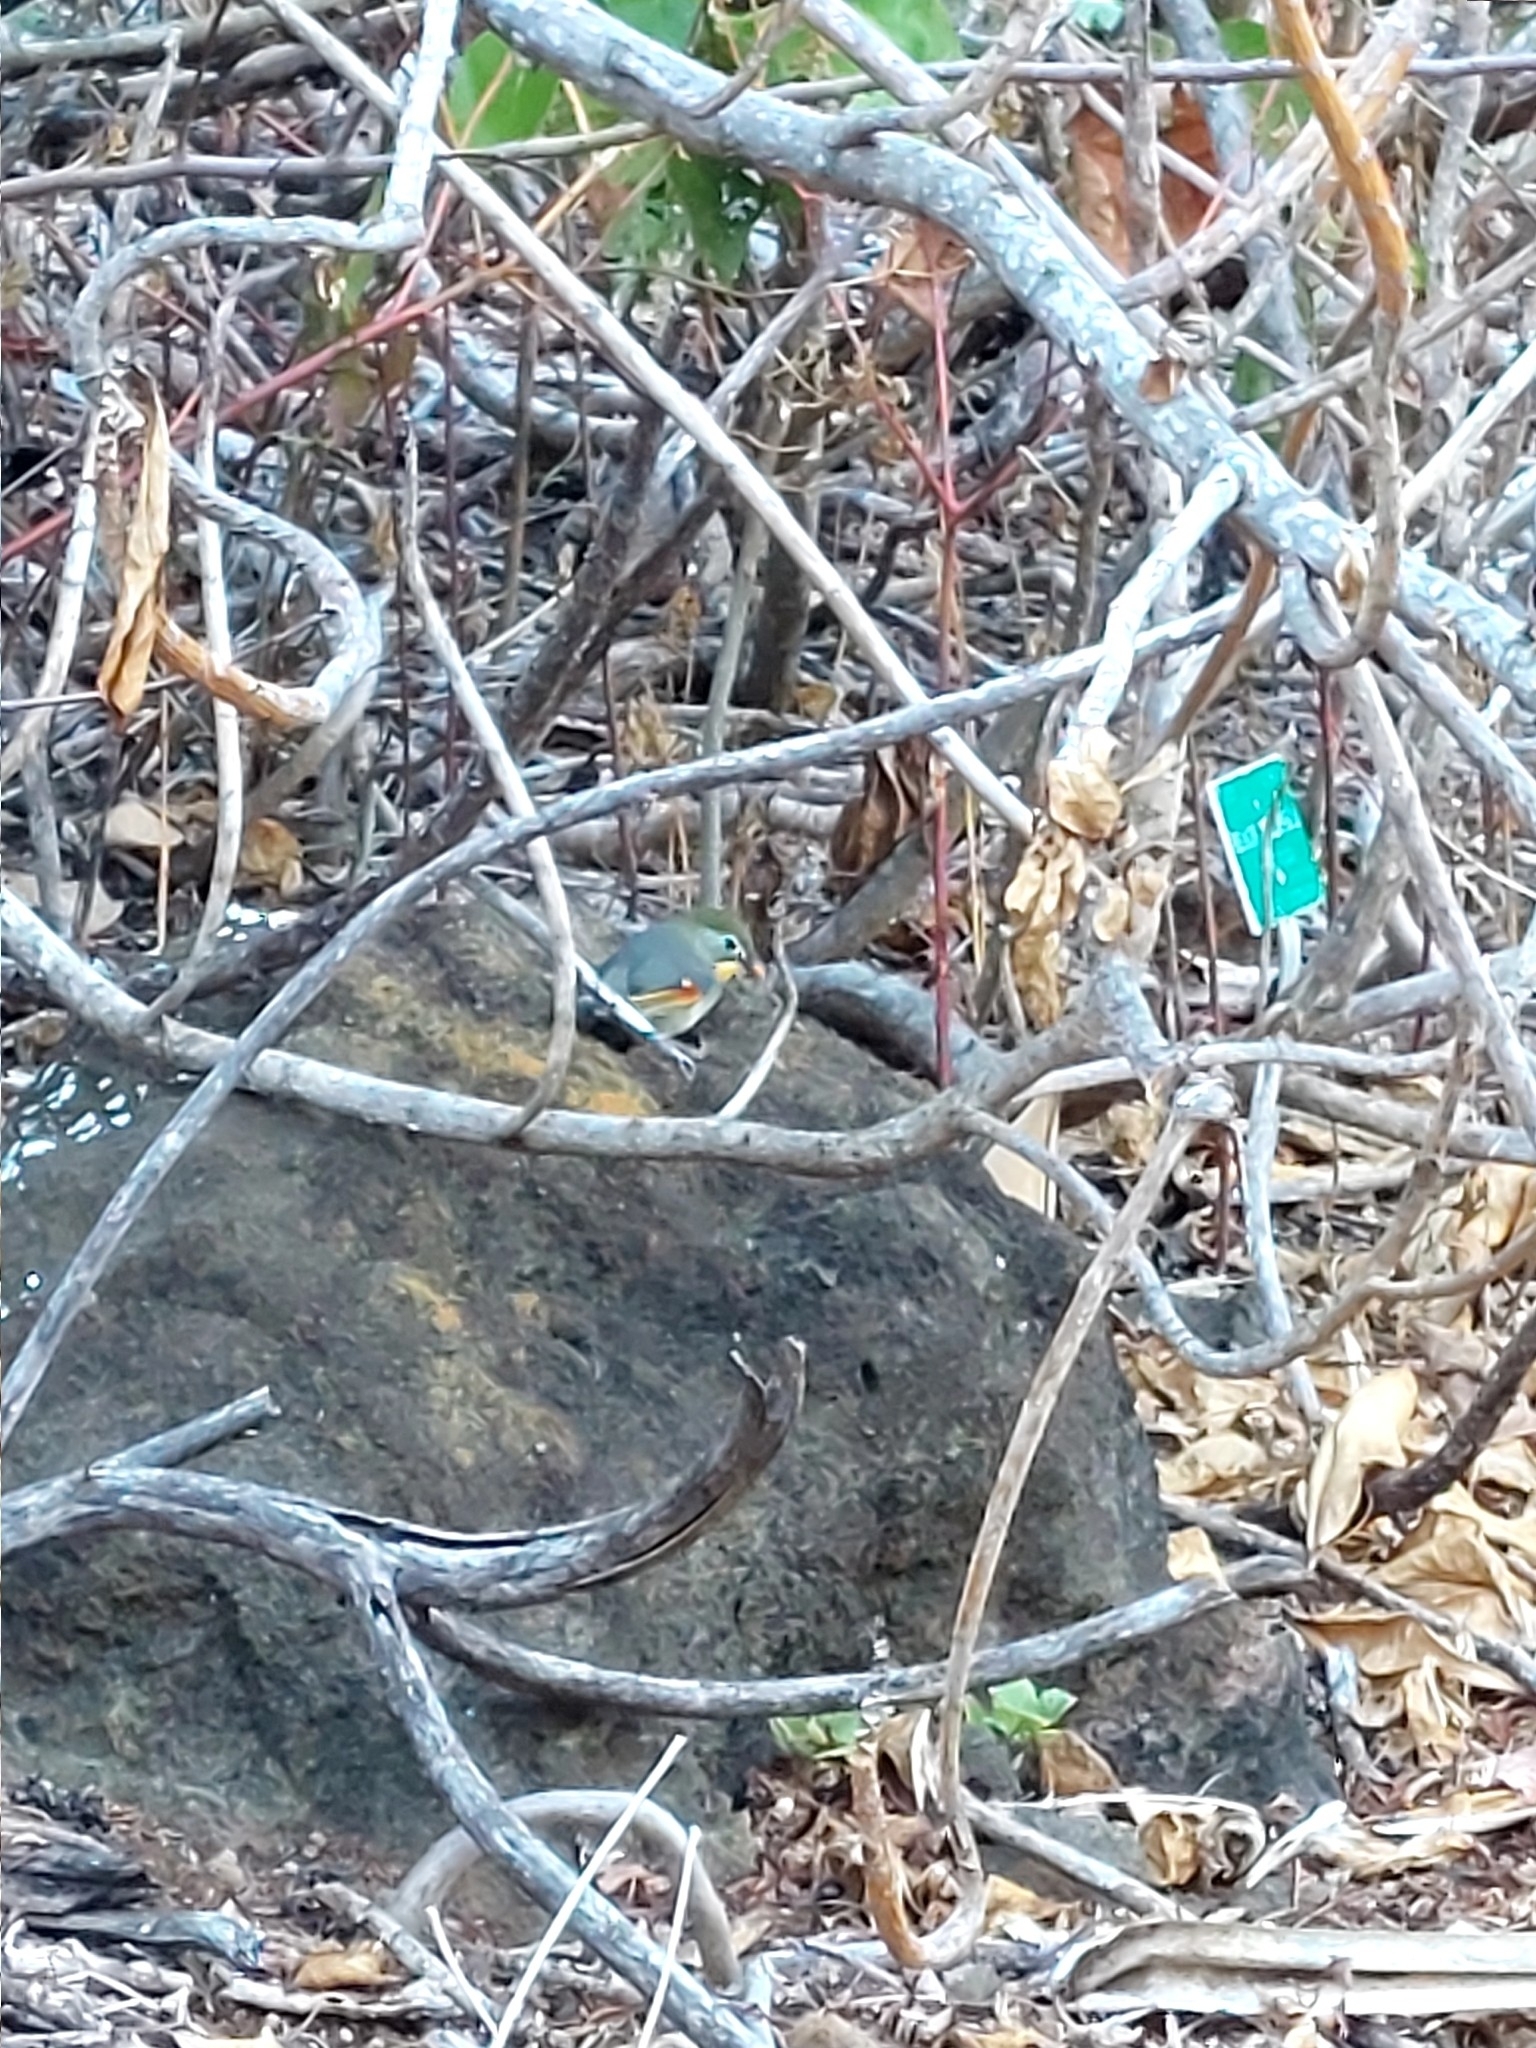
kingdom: Animalia
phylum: Chordata
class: Aves
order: Passeriformes
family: Leiothrichidae
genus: Leiothrix
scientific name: Leiothrix lutea
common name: Red-billed leiothrix
